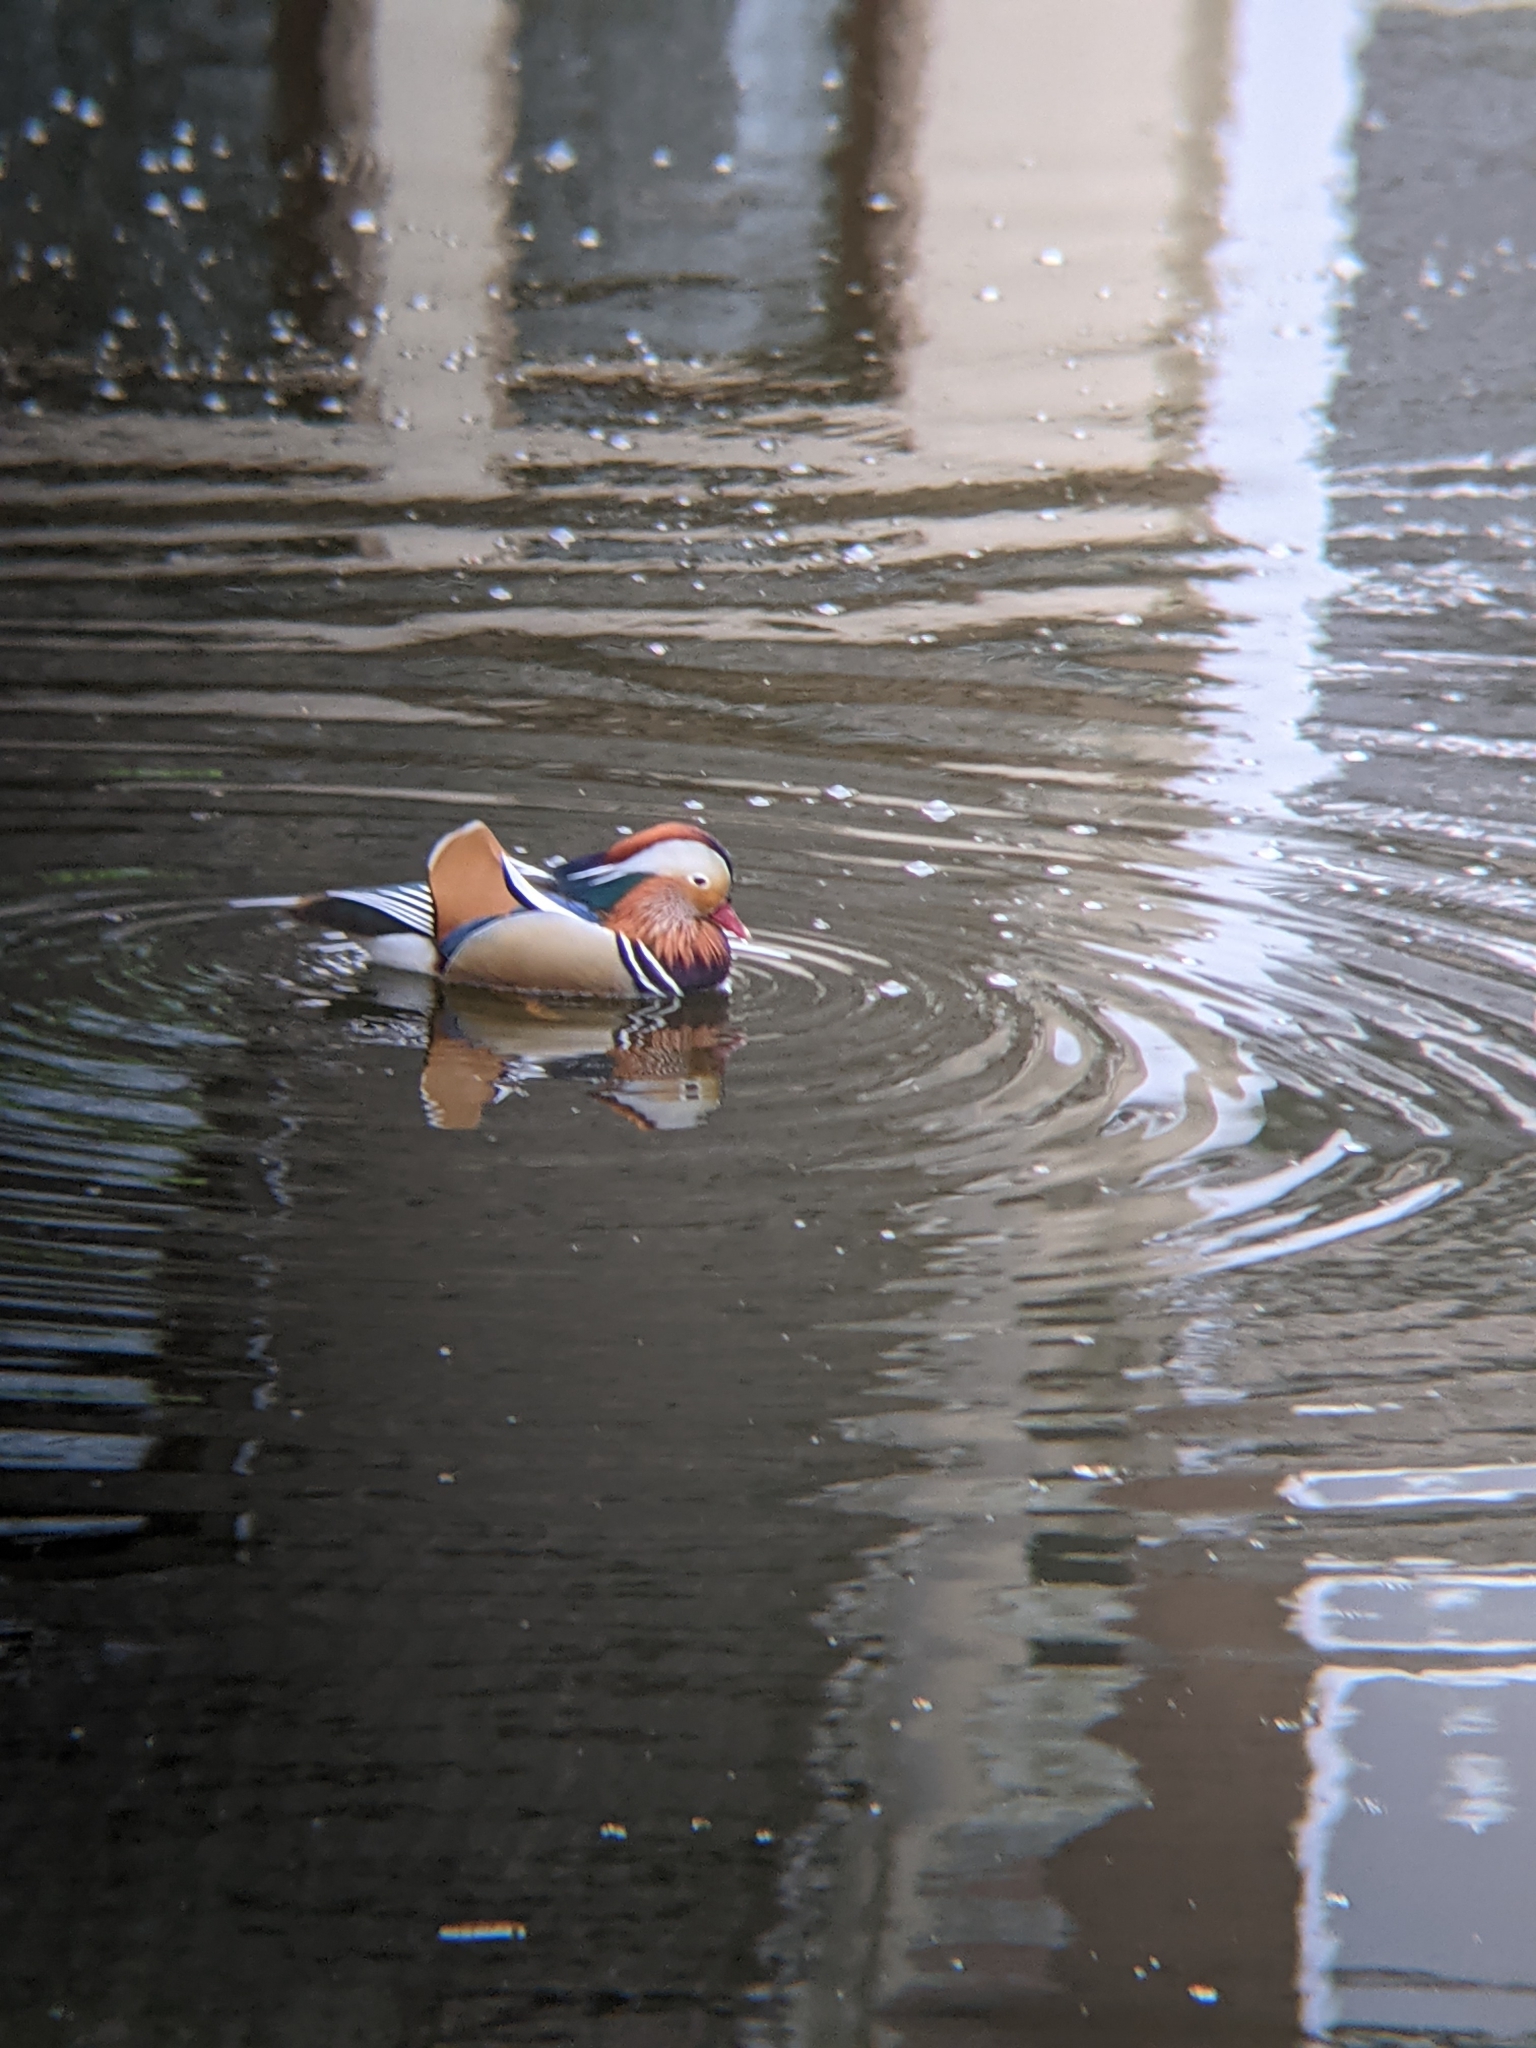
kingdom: Animalia
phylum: Chordata
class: Aves
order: Anseriformes
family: Anatidae
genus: Aix
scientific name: Aix galericulata
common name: Mandarin duck
